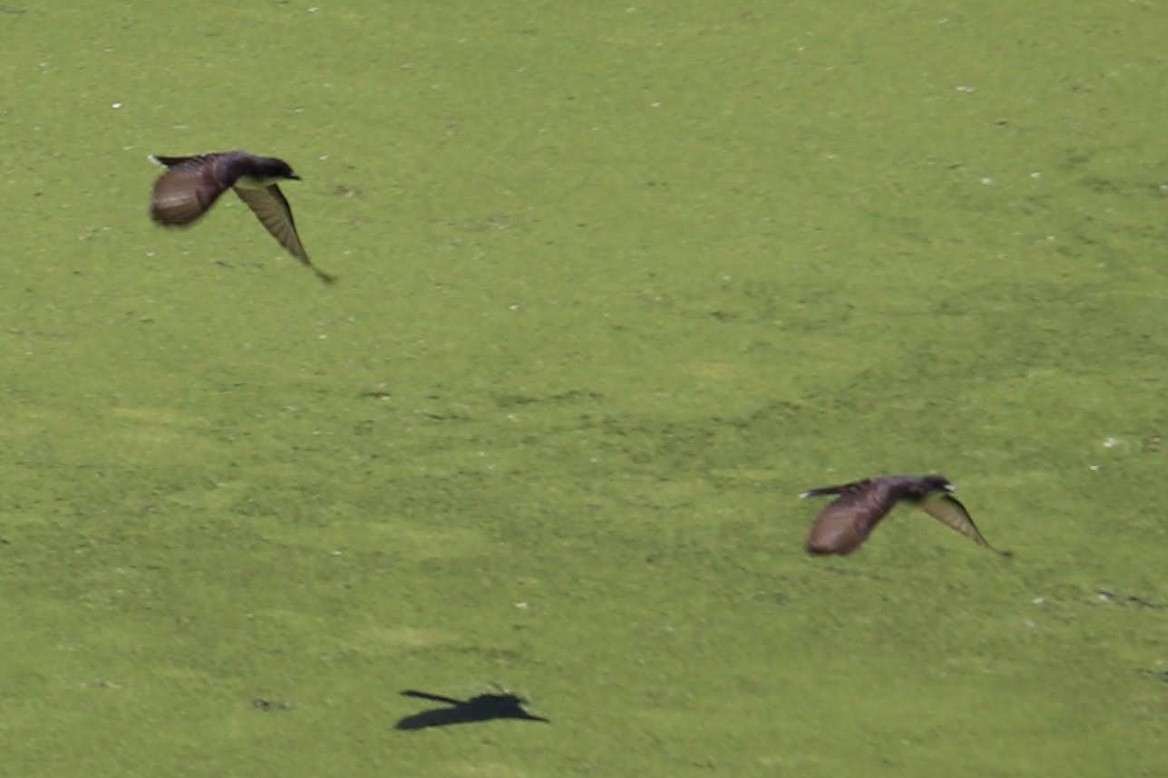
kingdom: Animalia
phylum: Chordata
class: Aves
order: Passeriformes
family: Tyrannidae
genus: Tyrannus
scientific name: Tyrannus tyrannus
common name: Eastern kingbird
